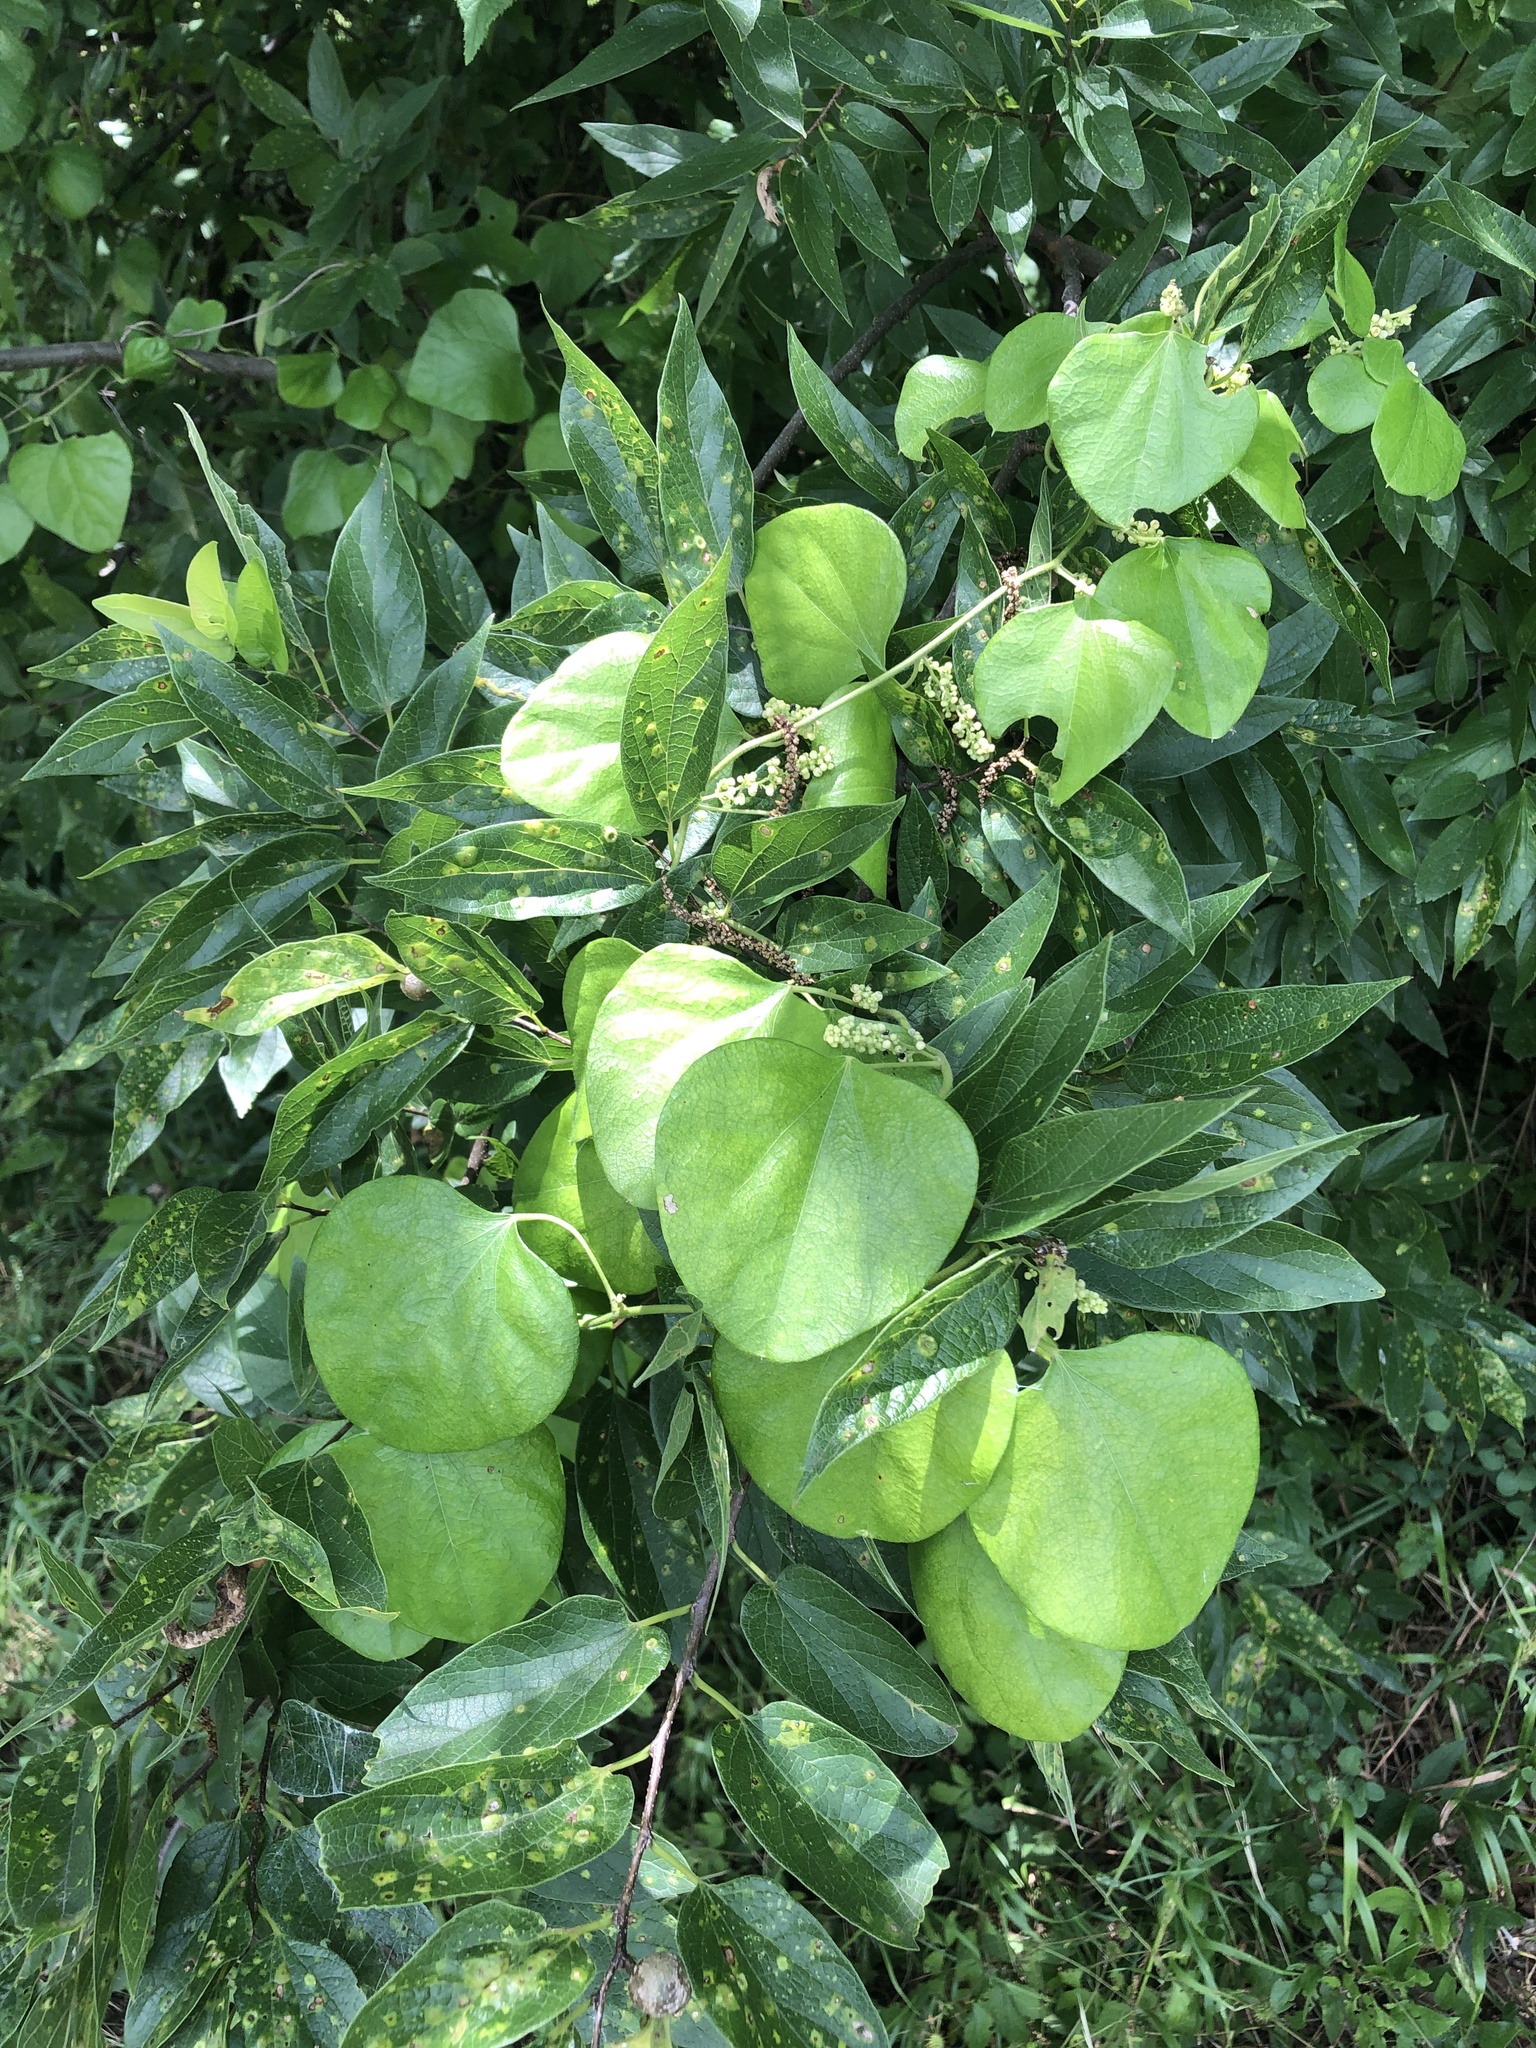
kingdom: Plantae
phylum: Tracheophyta
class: Magnoliopsida
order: Ranunculales
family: Menispermaceae
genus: Cocculus
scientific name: Cocculus carolinus
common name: Carolina moonseed
